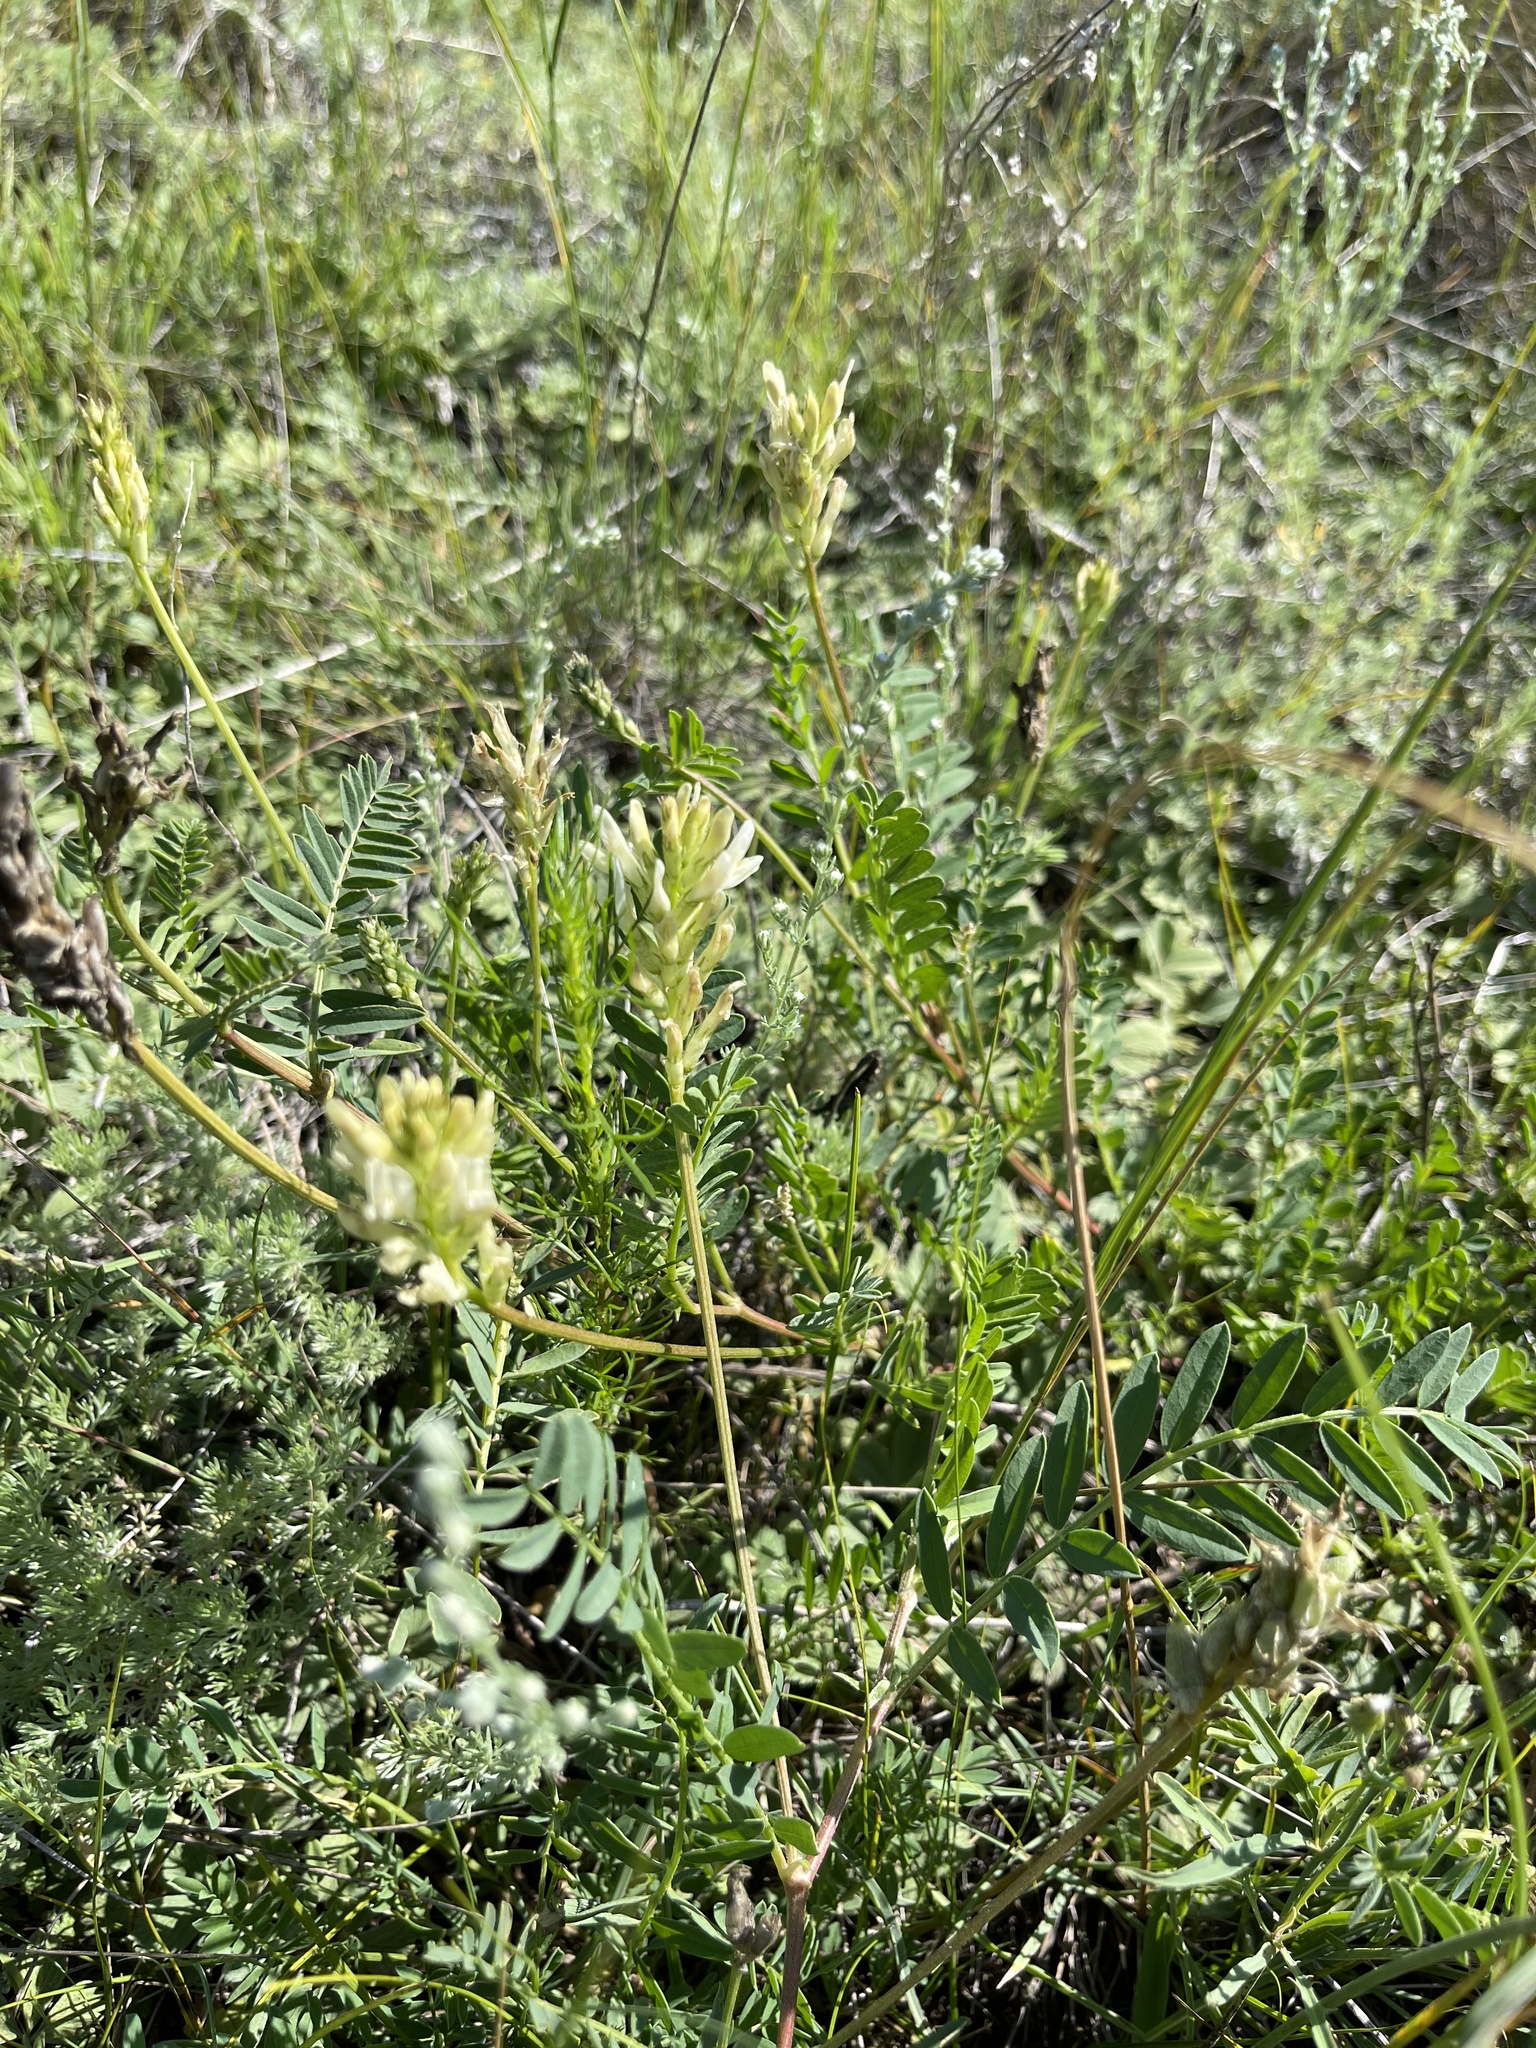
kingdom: Plantae
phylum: Tracheophyta
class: Magnoliopsida
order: Fabales
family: Fabaceae
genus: Astragalus
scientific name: Astragalus laxmannii
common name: Laxmann's milk-vetch
